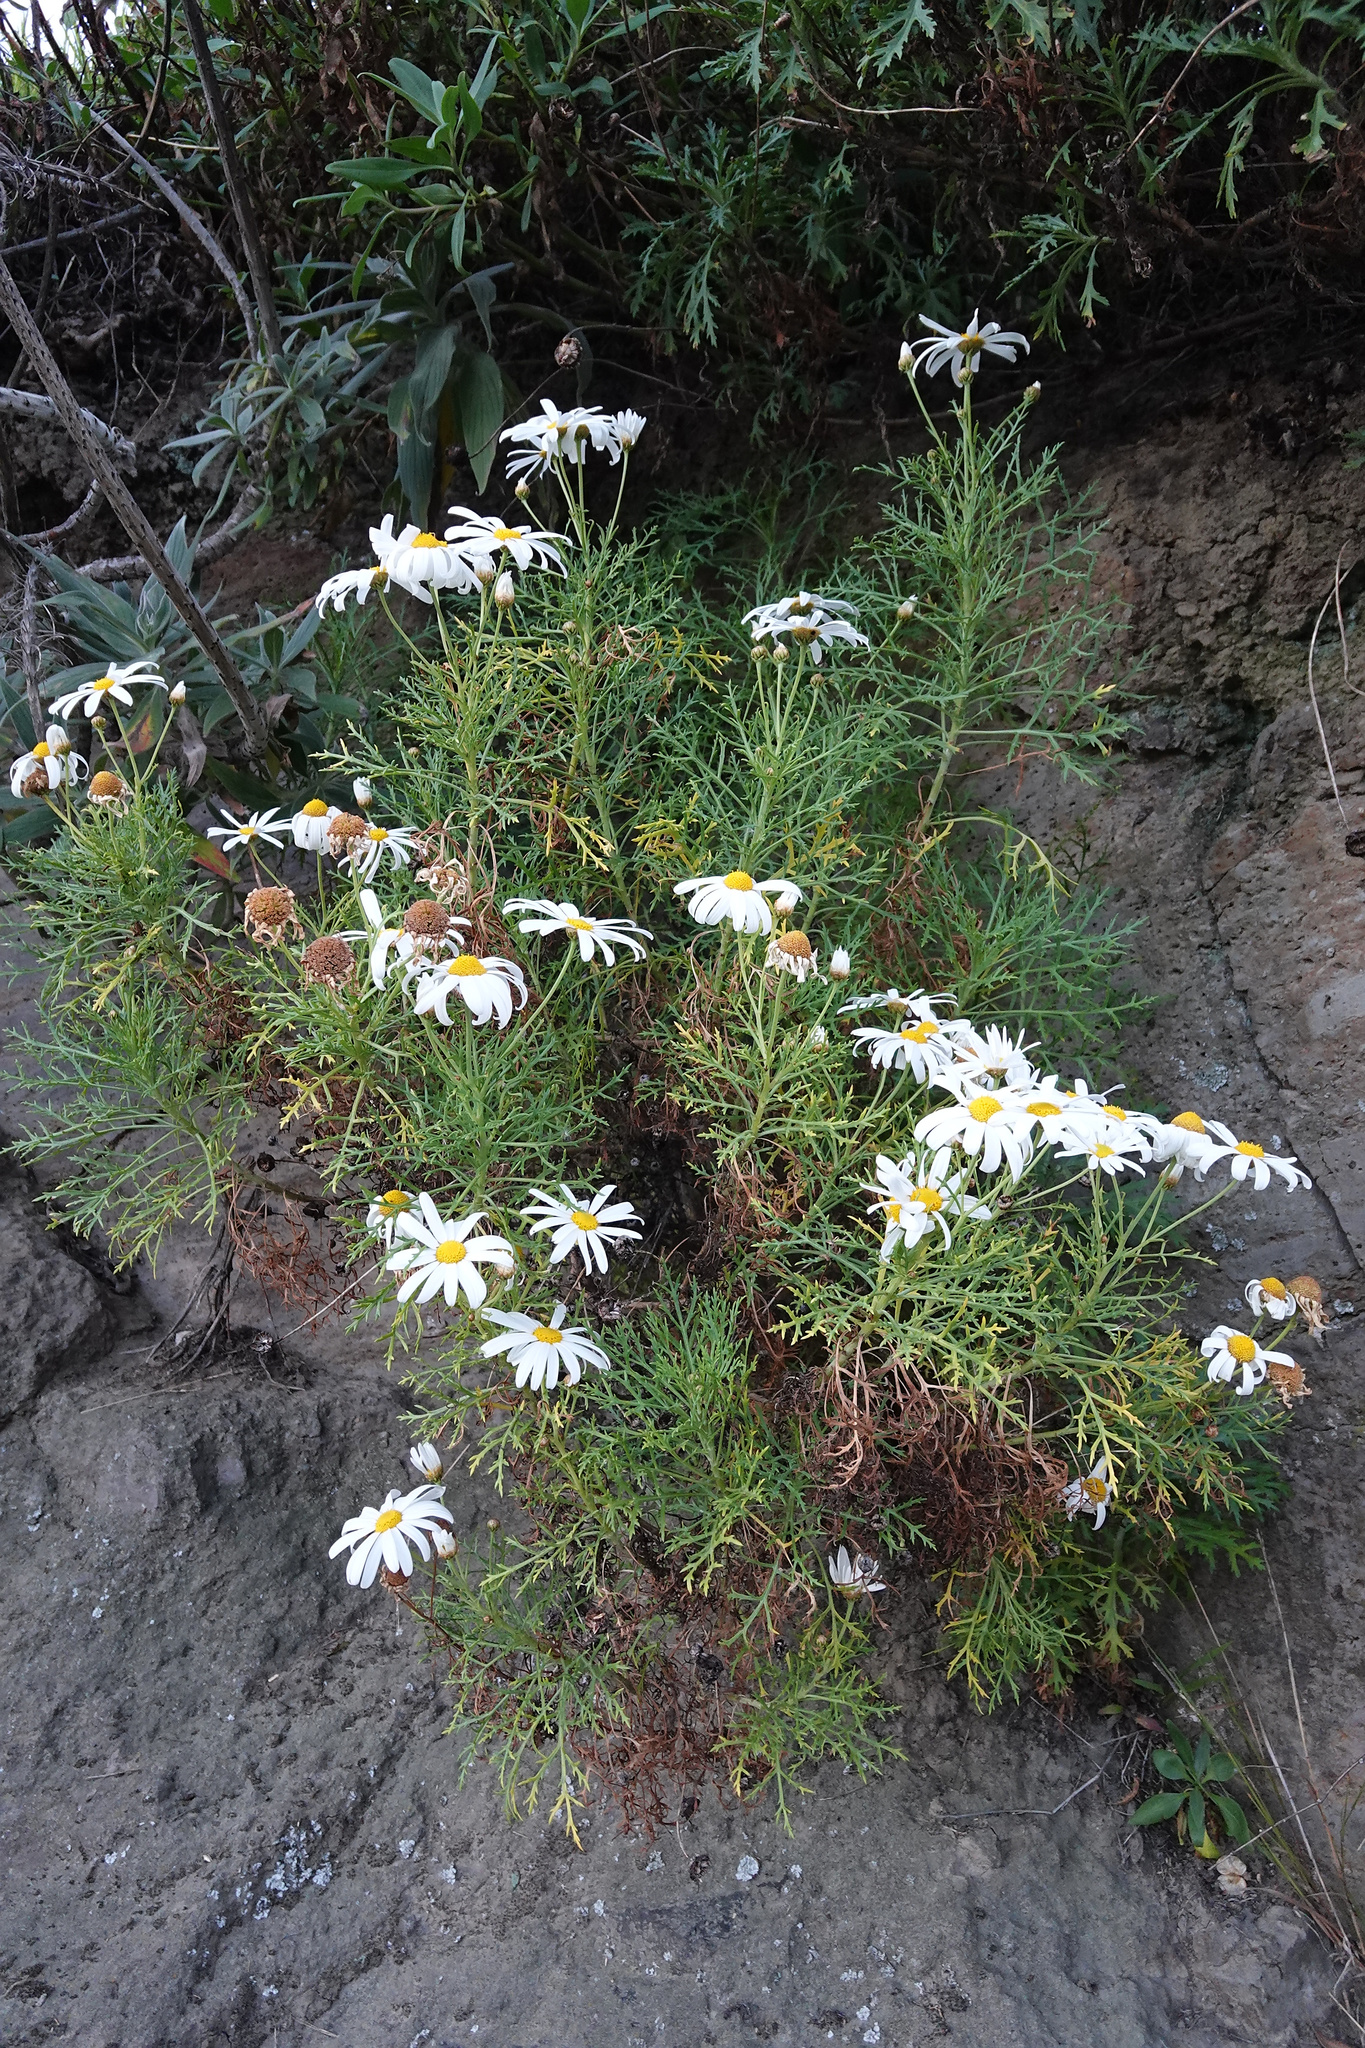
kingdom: Plantae
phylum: Tracheophyta
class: Magnoliopsida
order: Asterales
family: Asteraceae
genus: Argyranthemum
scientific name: Argyranthemum frutescens
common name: Paris daisy
